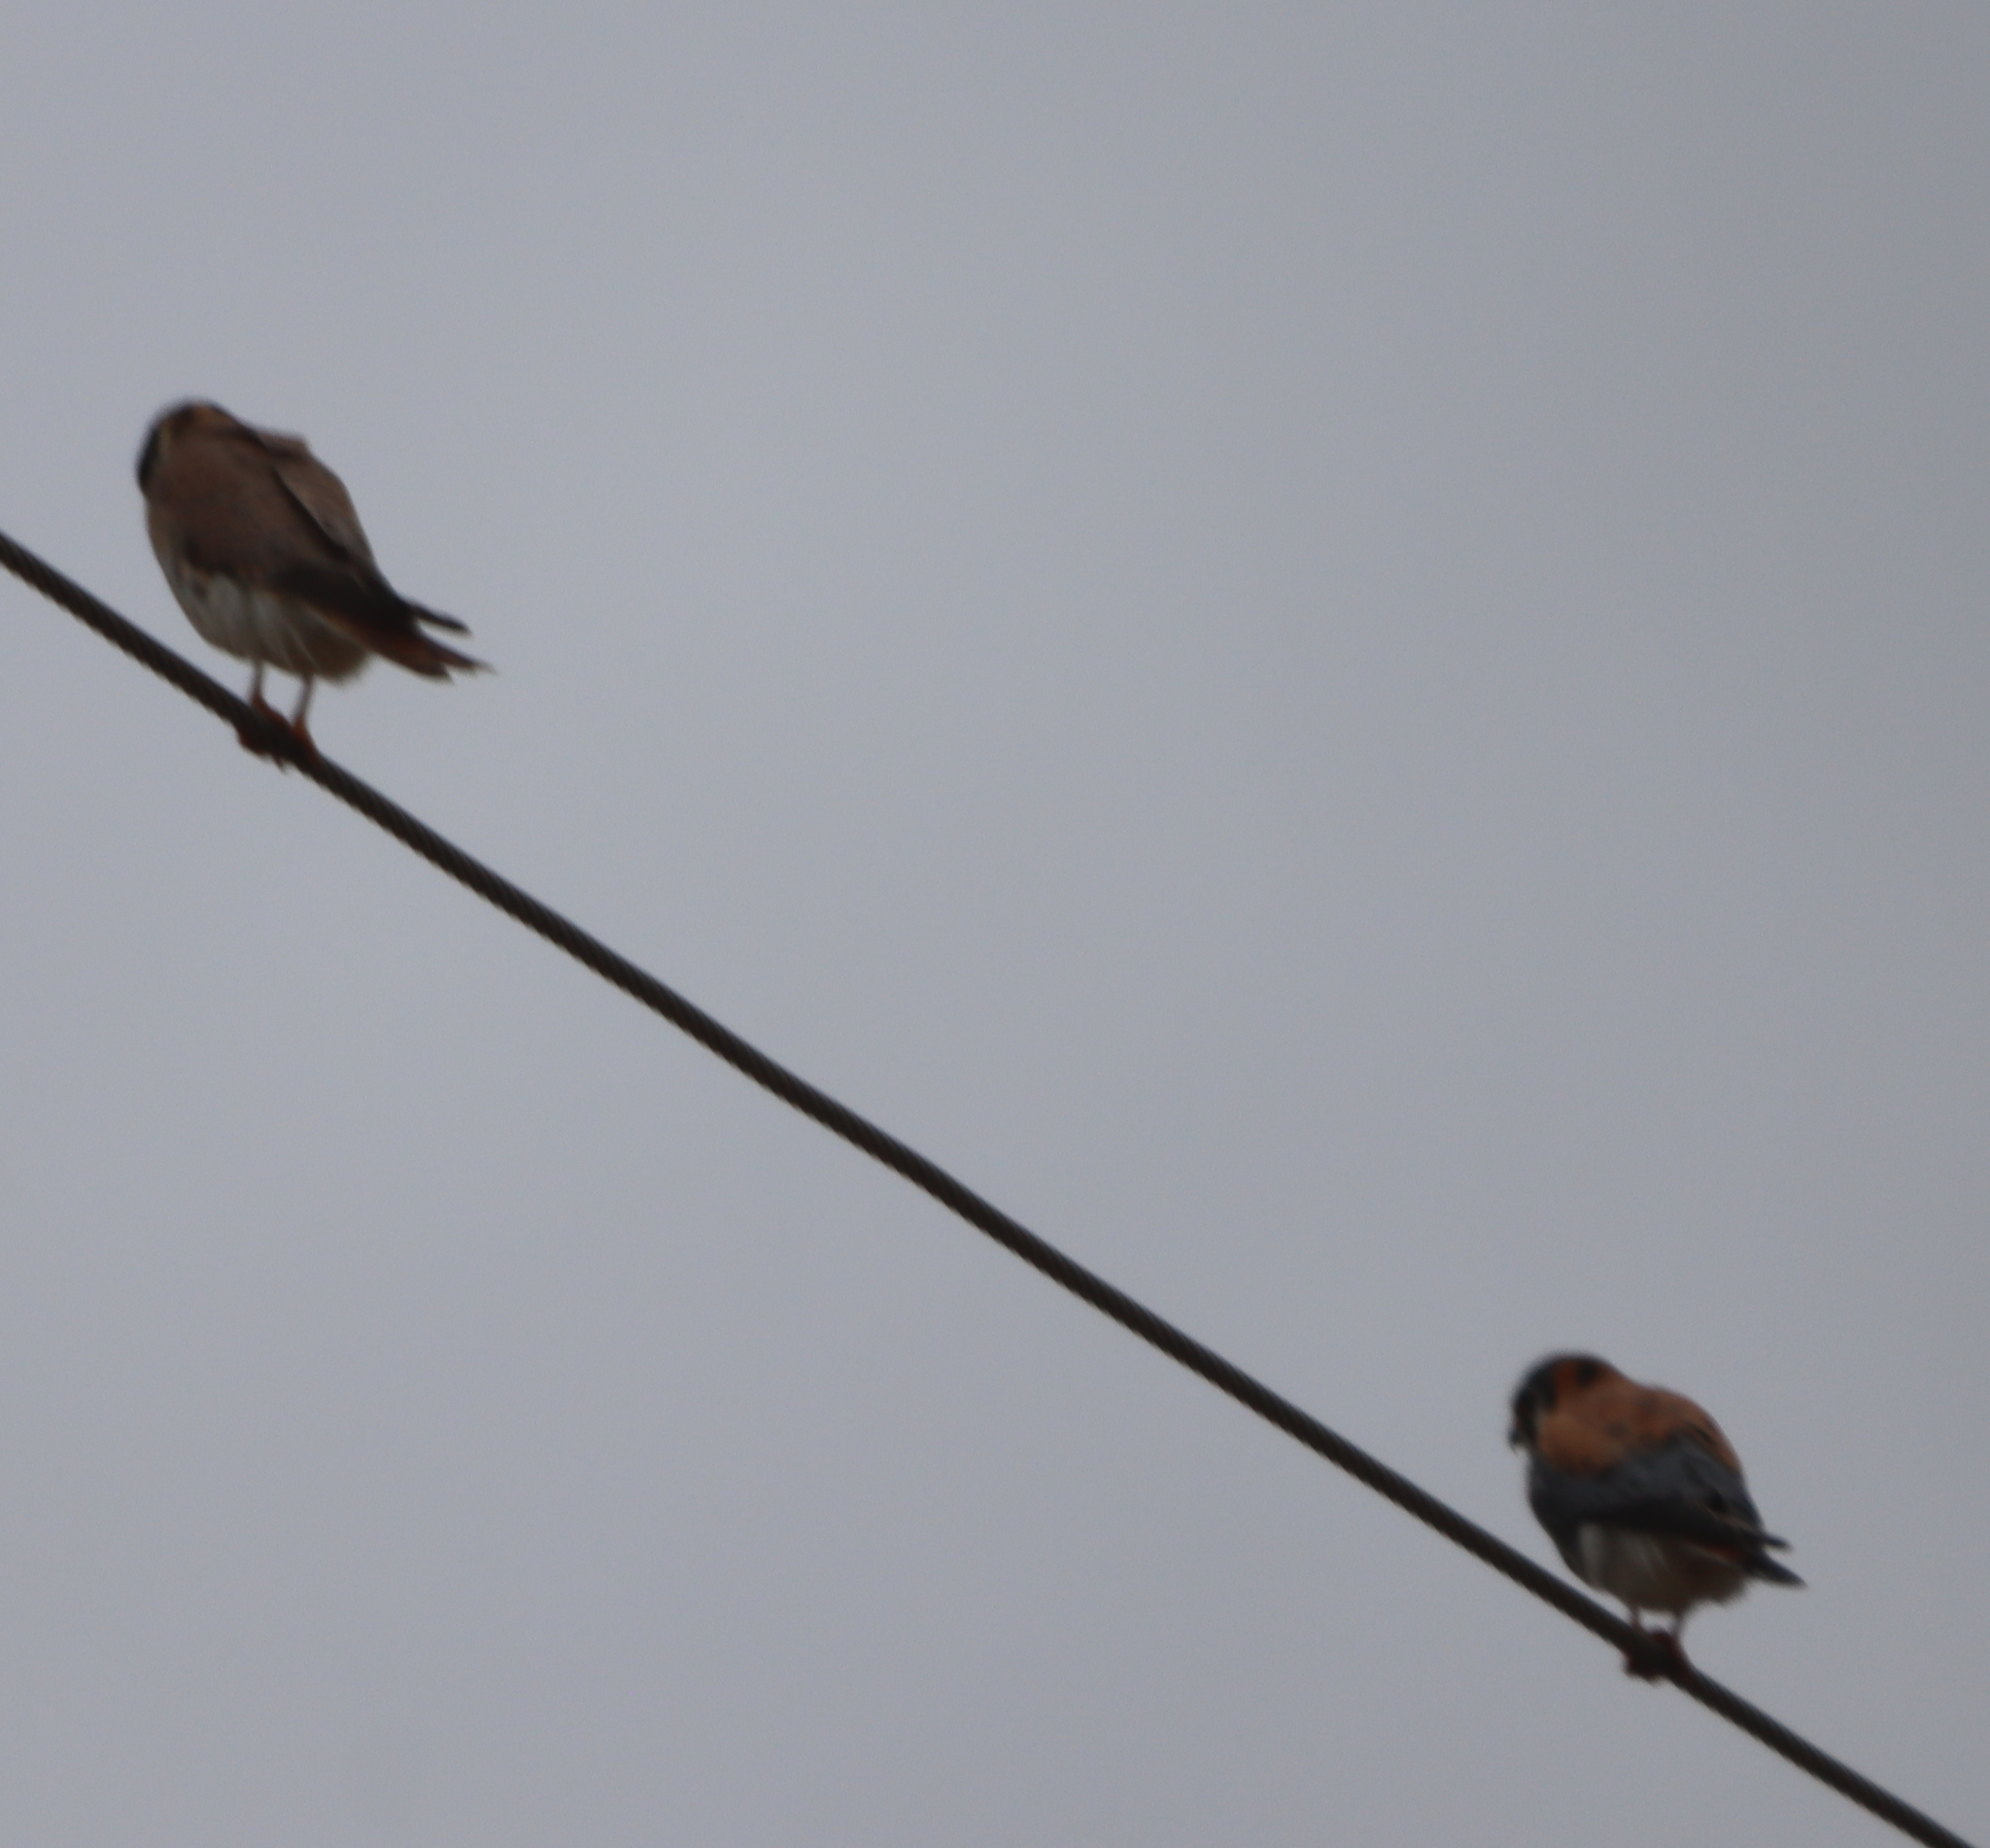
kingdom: Animalia
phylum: Chordata
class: Aves
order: Falconiformes
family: Falconidae
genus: Falco
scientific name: Falco sparverius
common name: American kestrel
